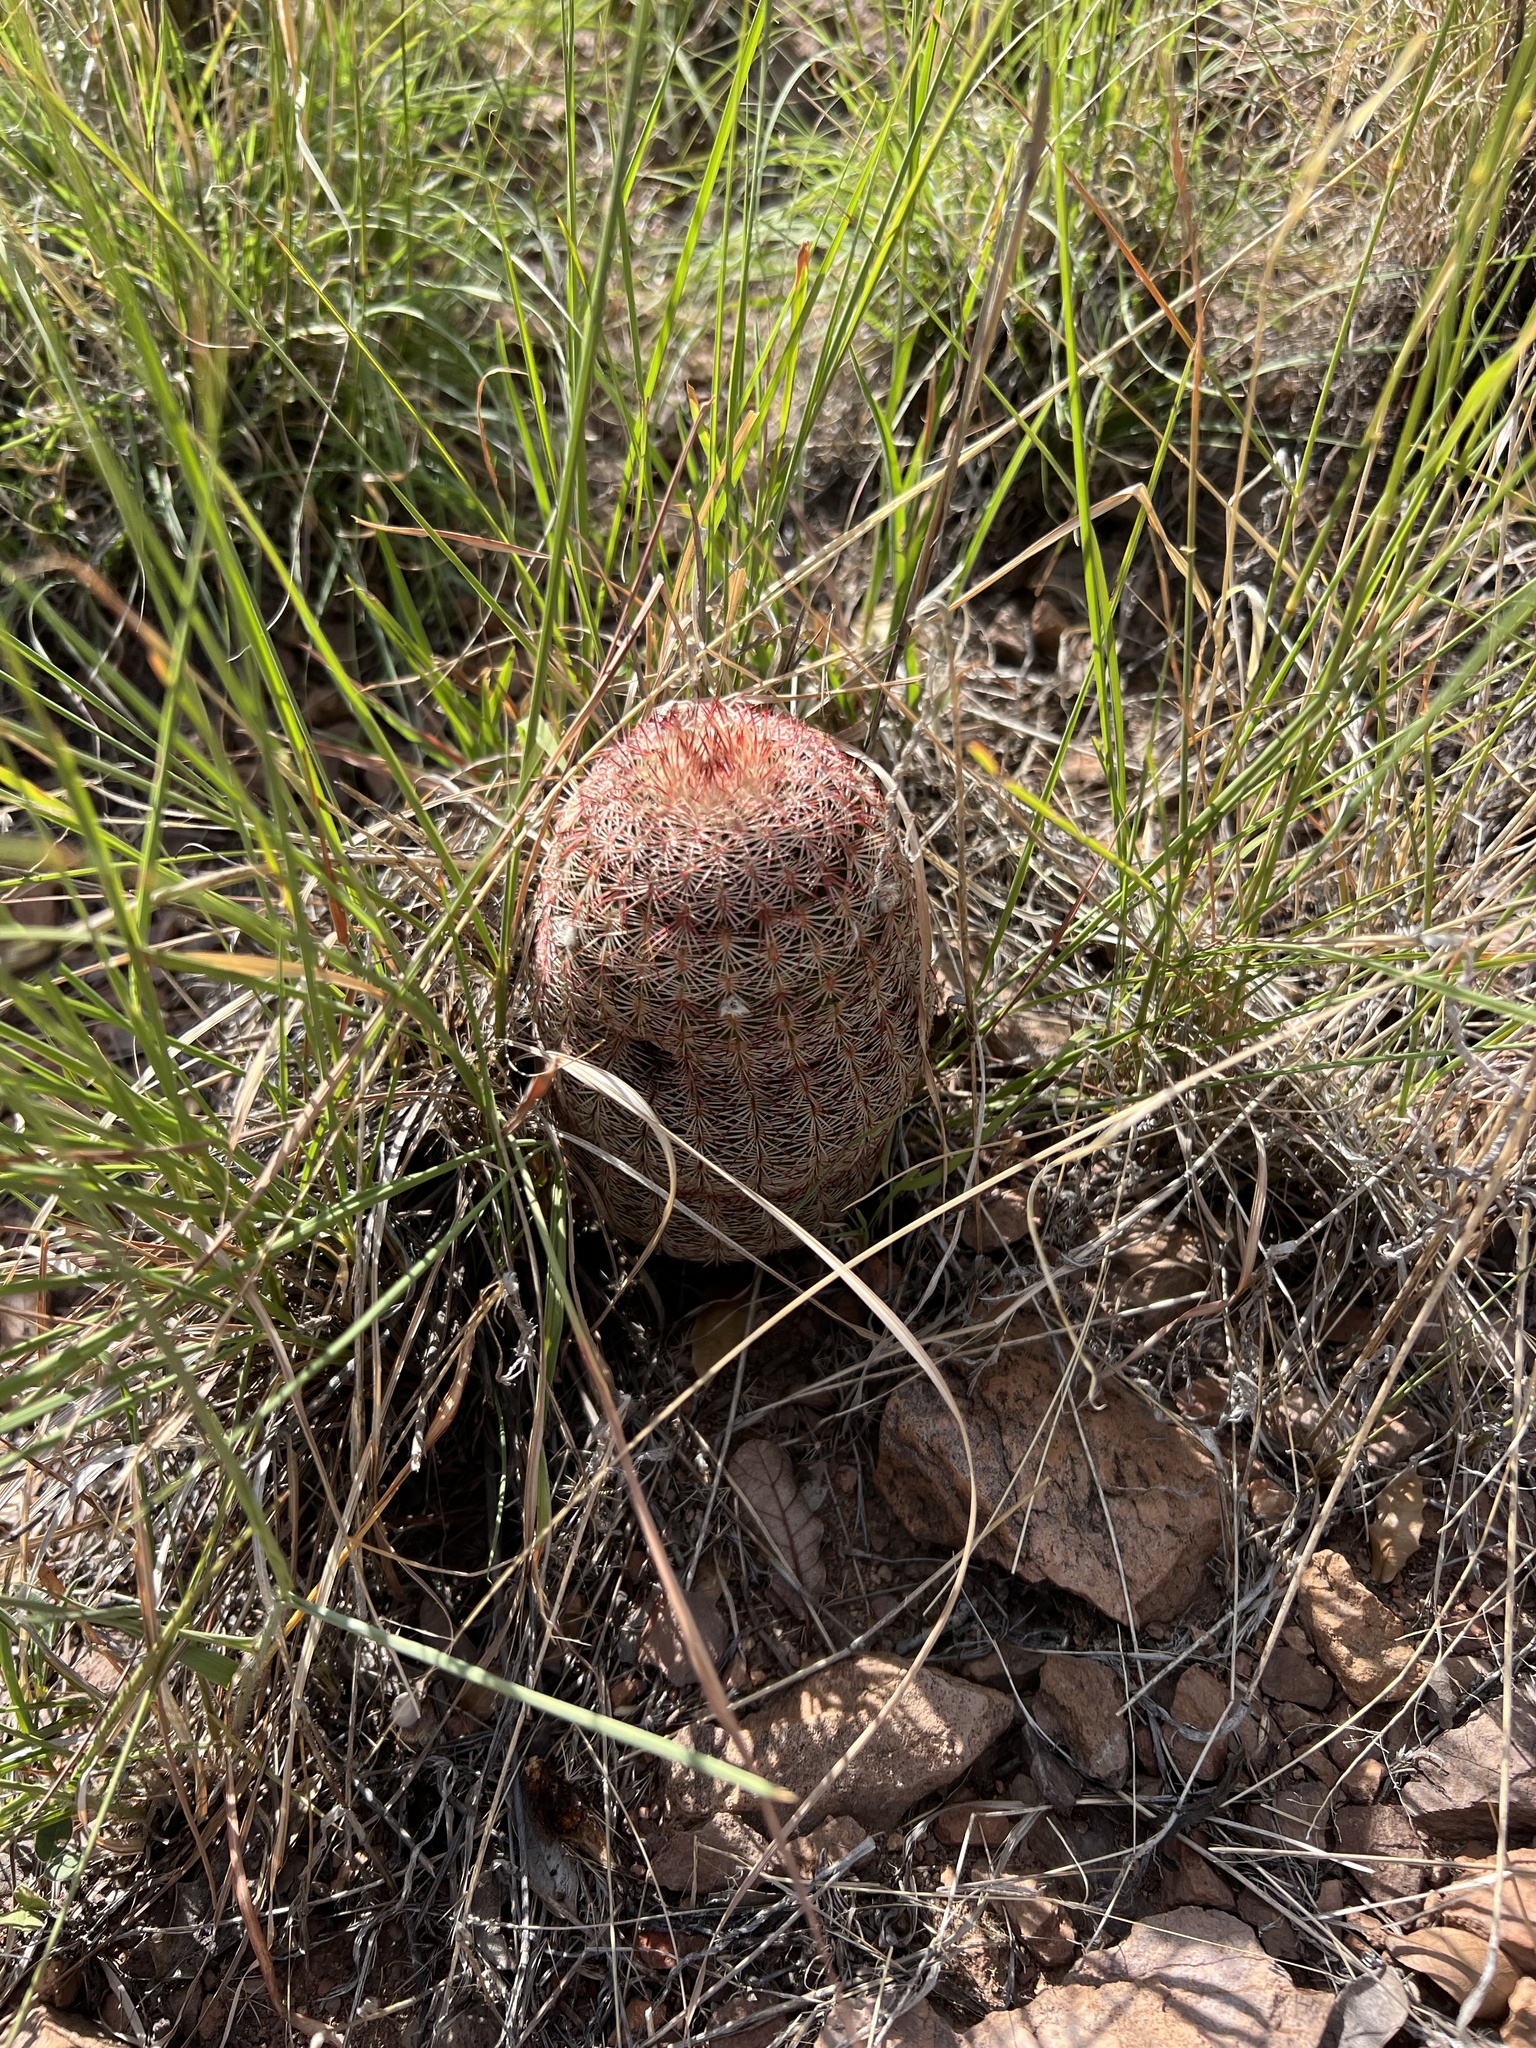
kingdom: Plantae
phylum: Tracheophyta
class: Magnoliopsida
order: Caryophyllales
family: Cactaceae
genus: Echinocereus
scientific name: Echinocereus rigidissimus
